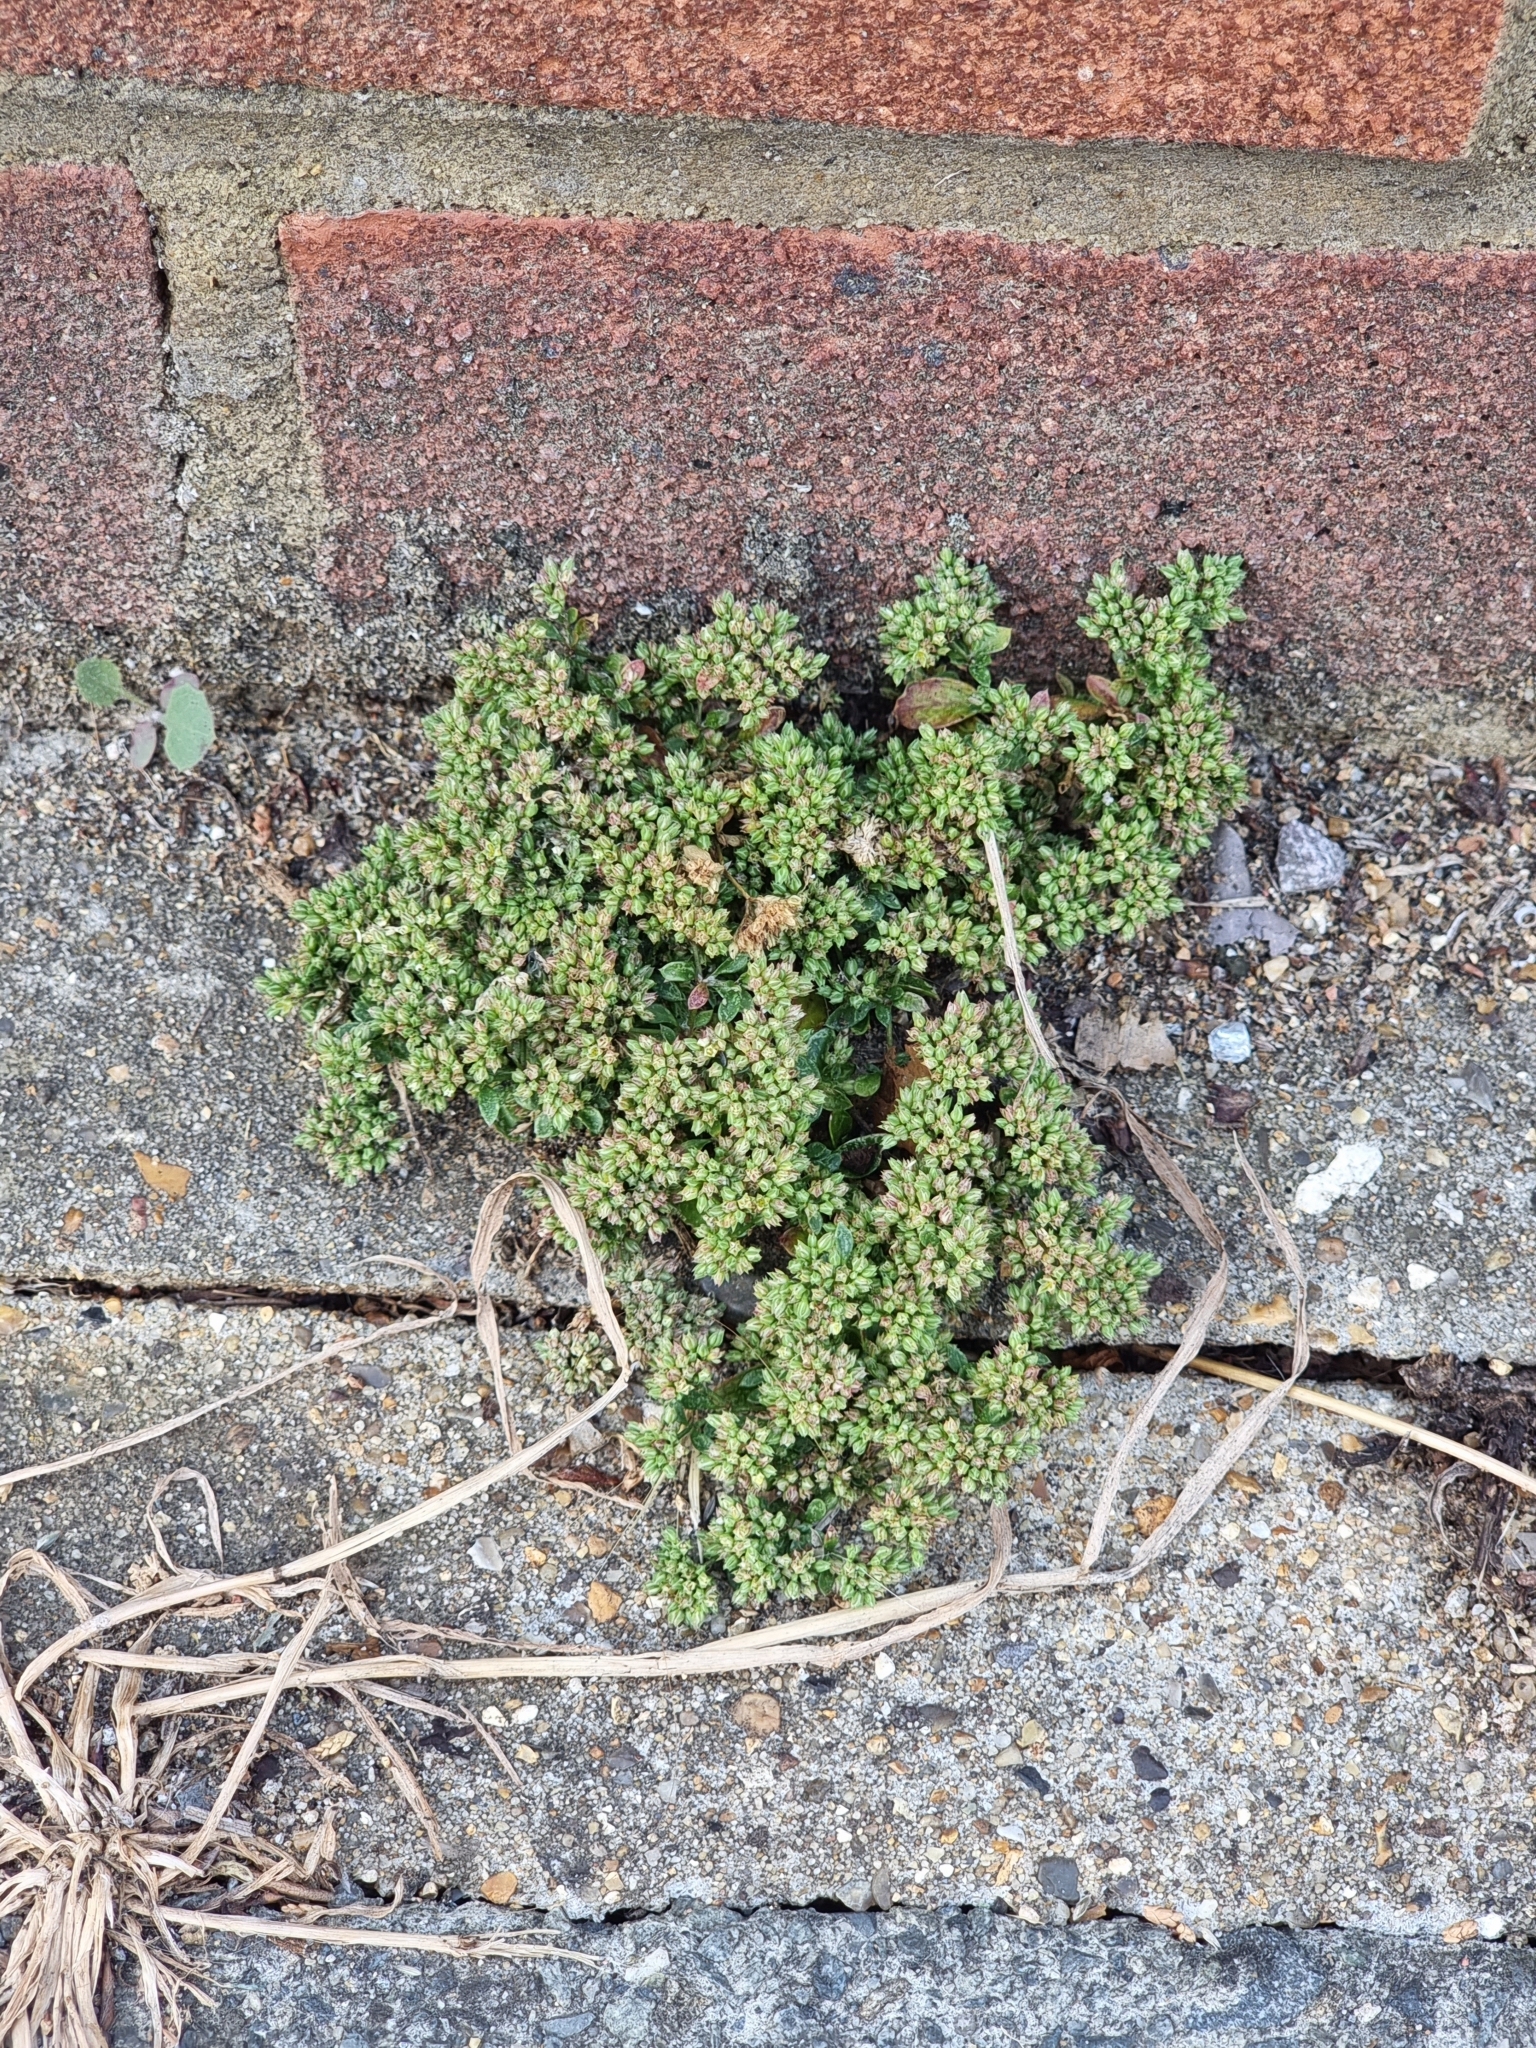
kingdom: Plantae
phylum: Tracheophyta
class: Magnoliopsida
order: Caryophyllales
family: Caryophyllaceae
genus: Polycarpon
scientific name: Polycarpon tetraphyllum
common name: Four-leaved all-seed
